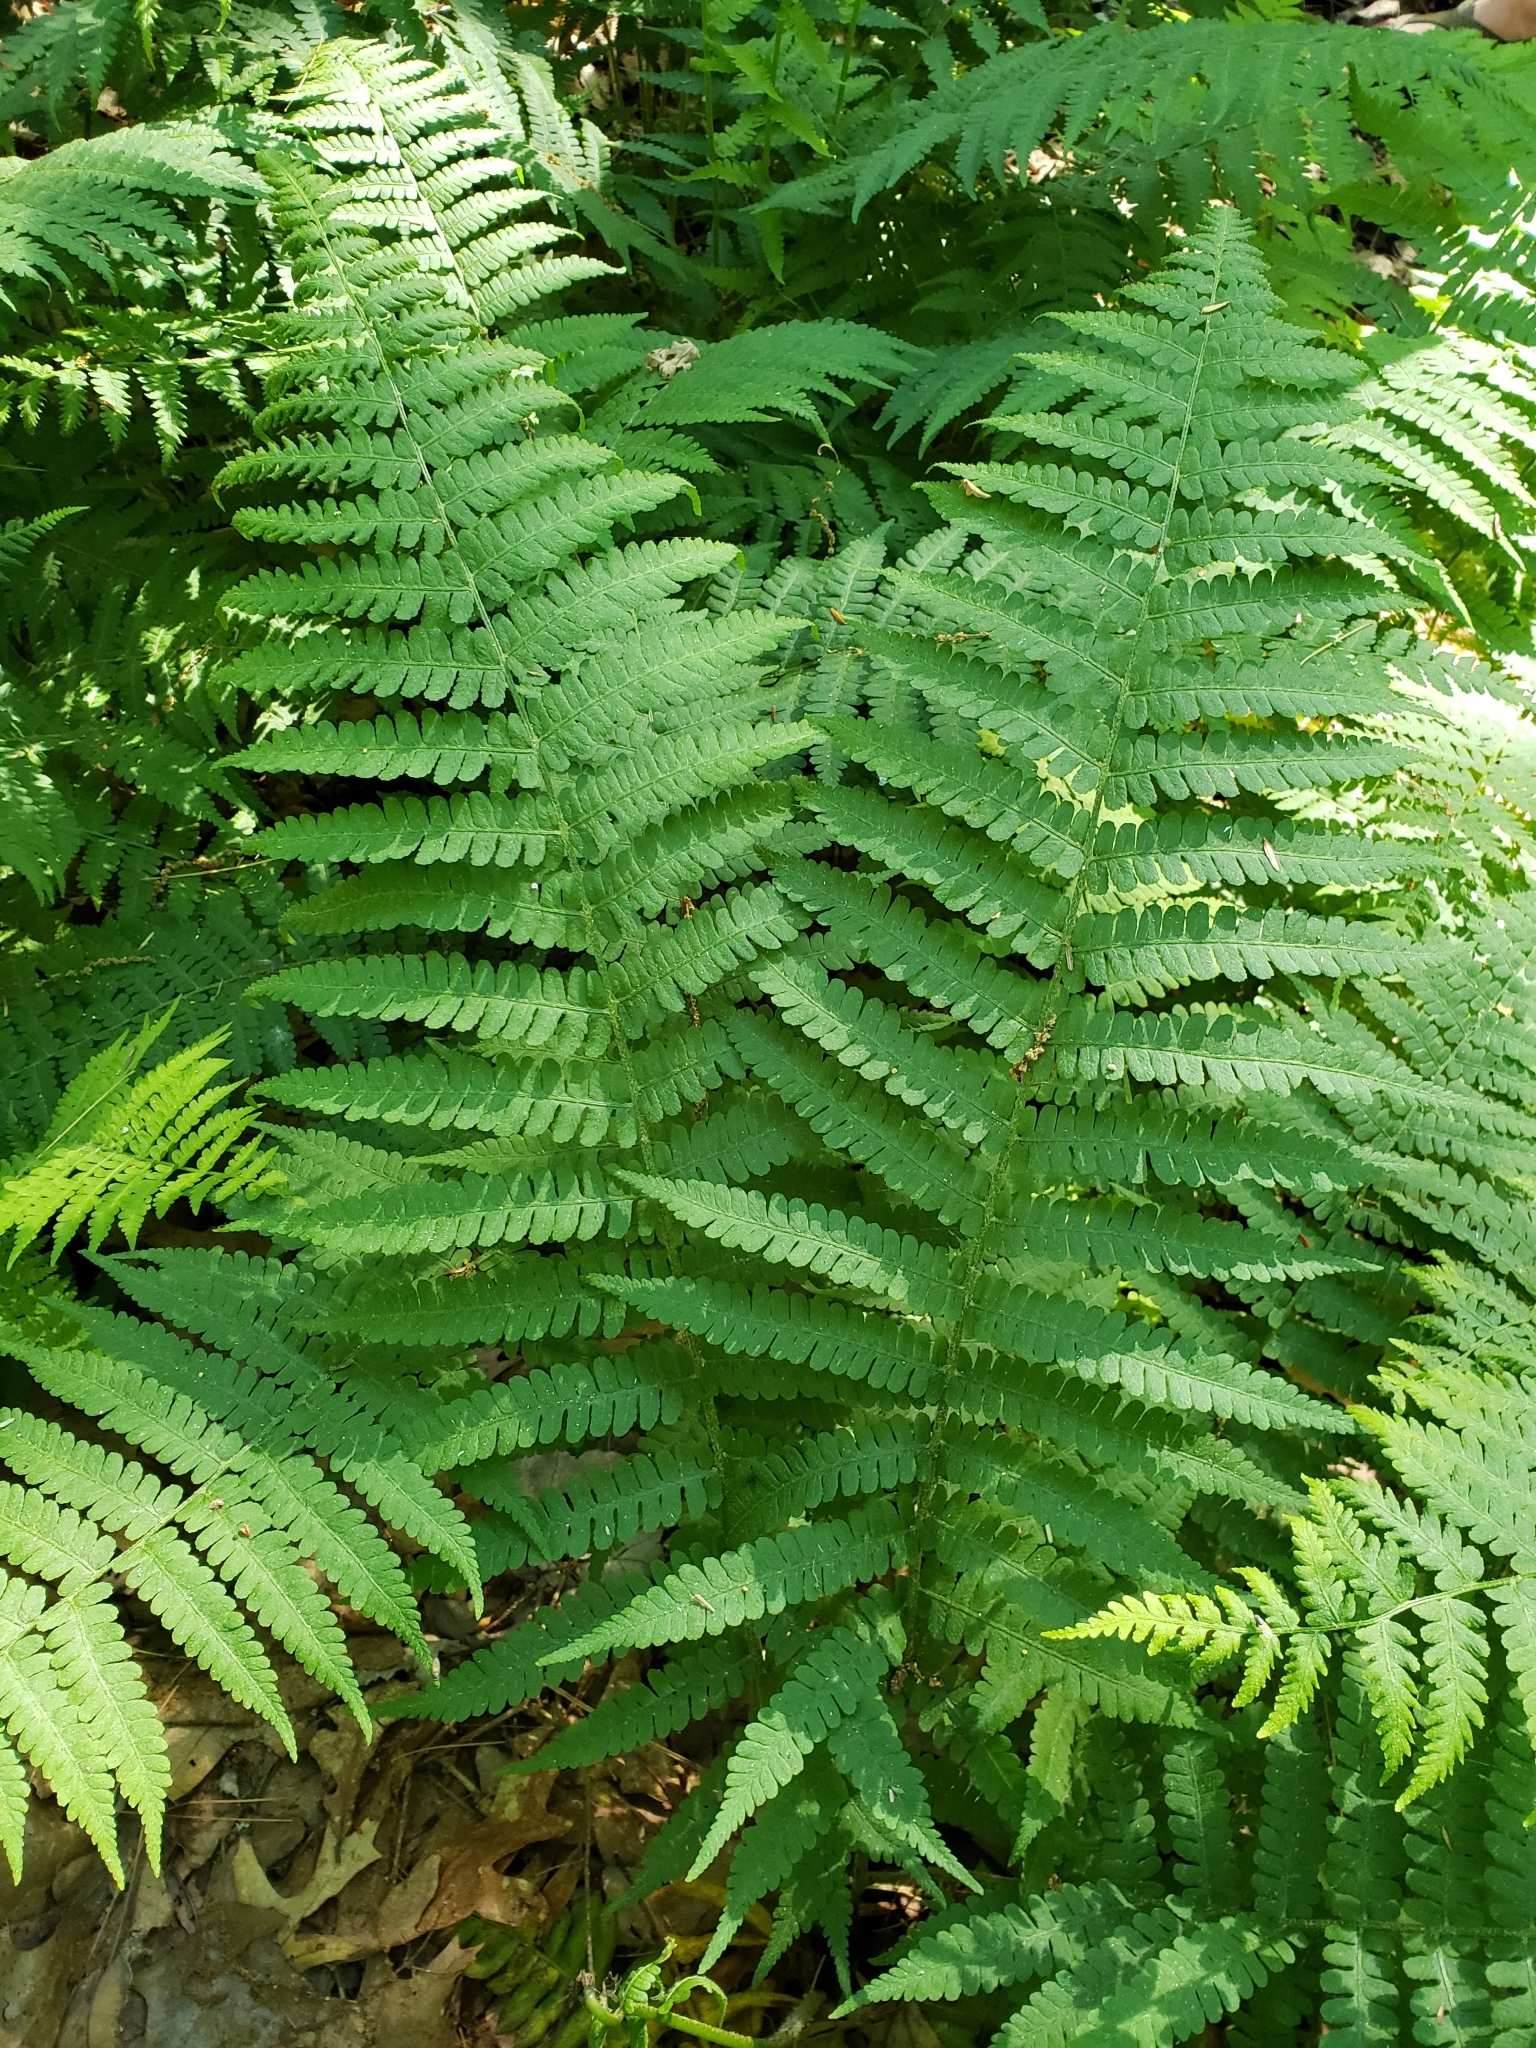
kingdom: Plantae
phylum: Tracheophyta
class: Polypodiopsida
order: Polypodiales
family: Athyriaceae
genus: Deparia
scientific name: Deparia acrostichoides
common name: Silver false spleenwort
